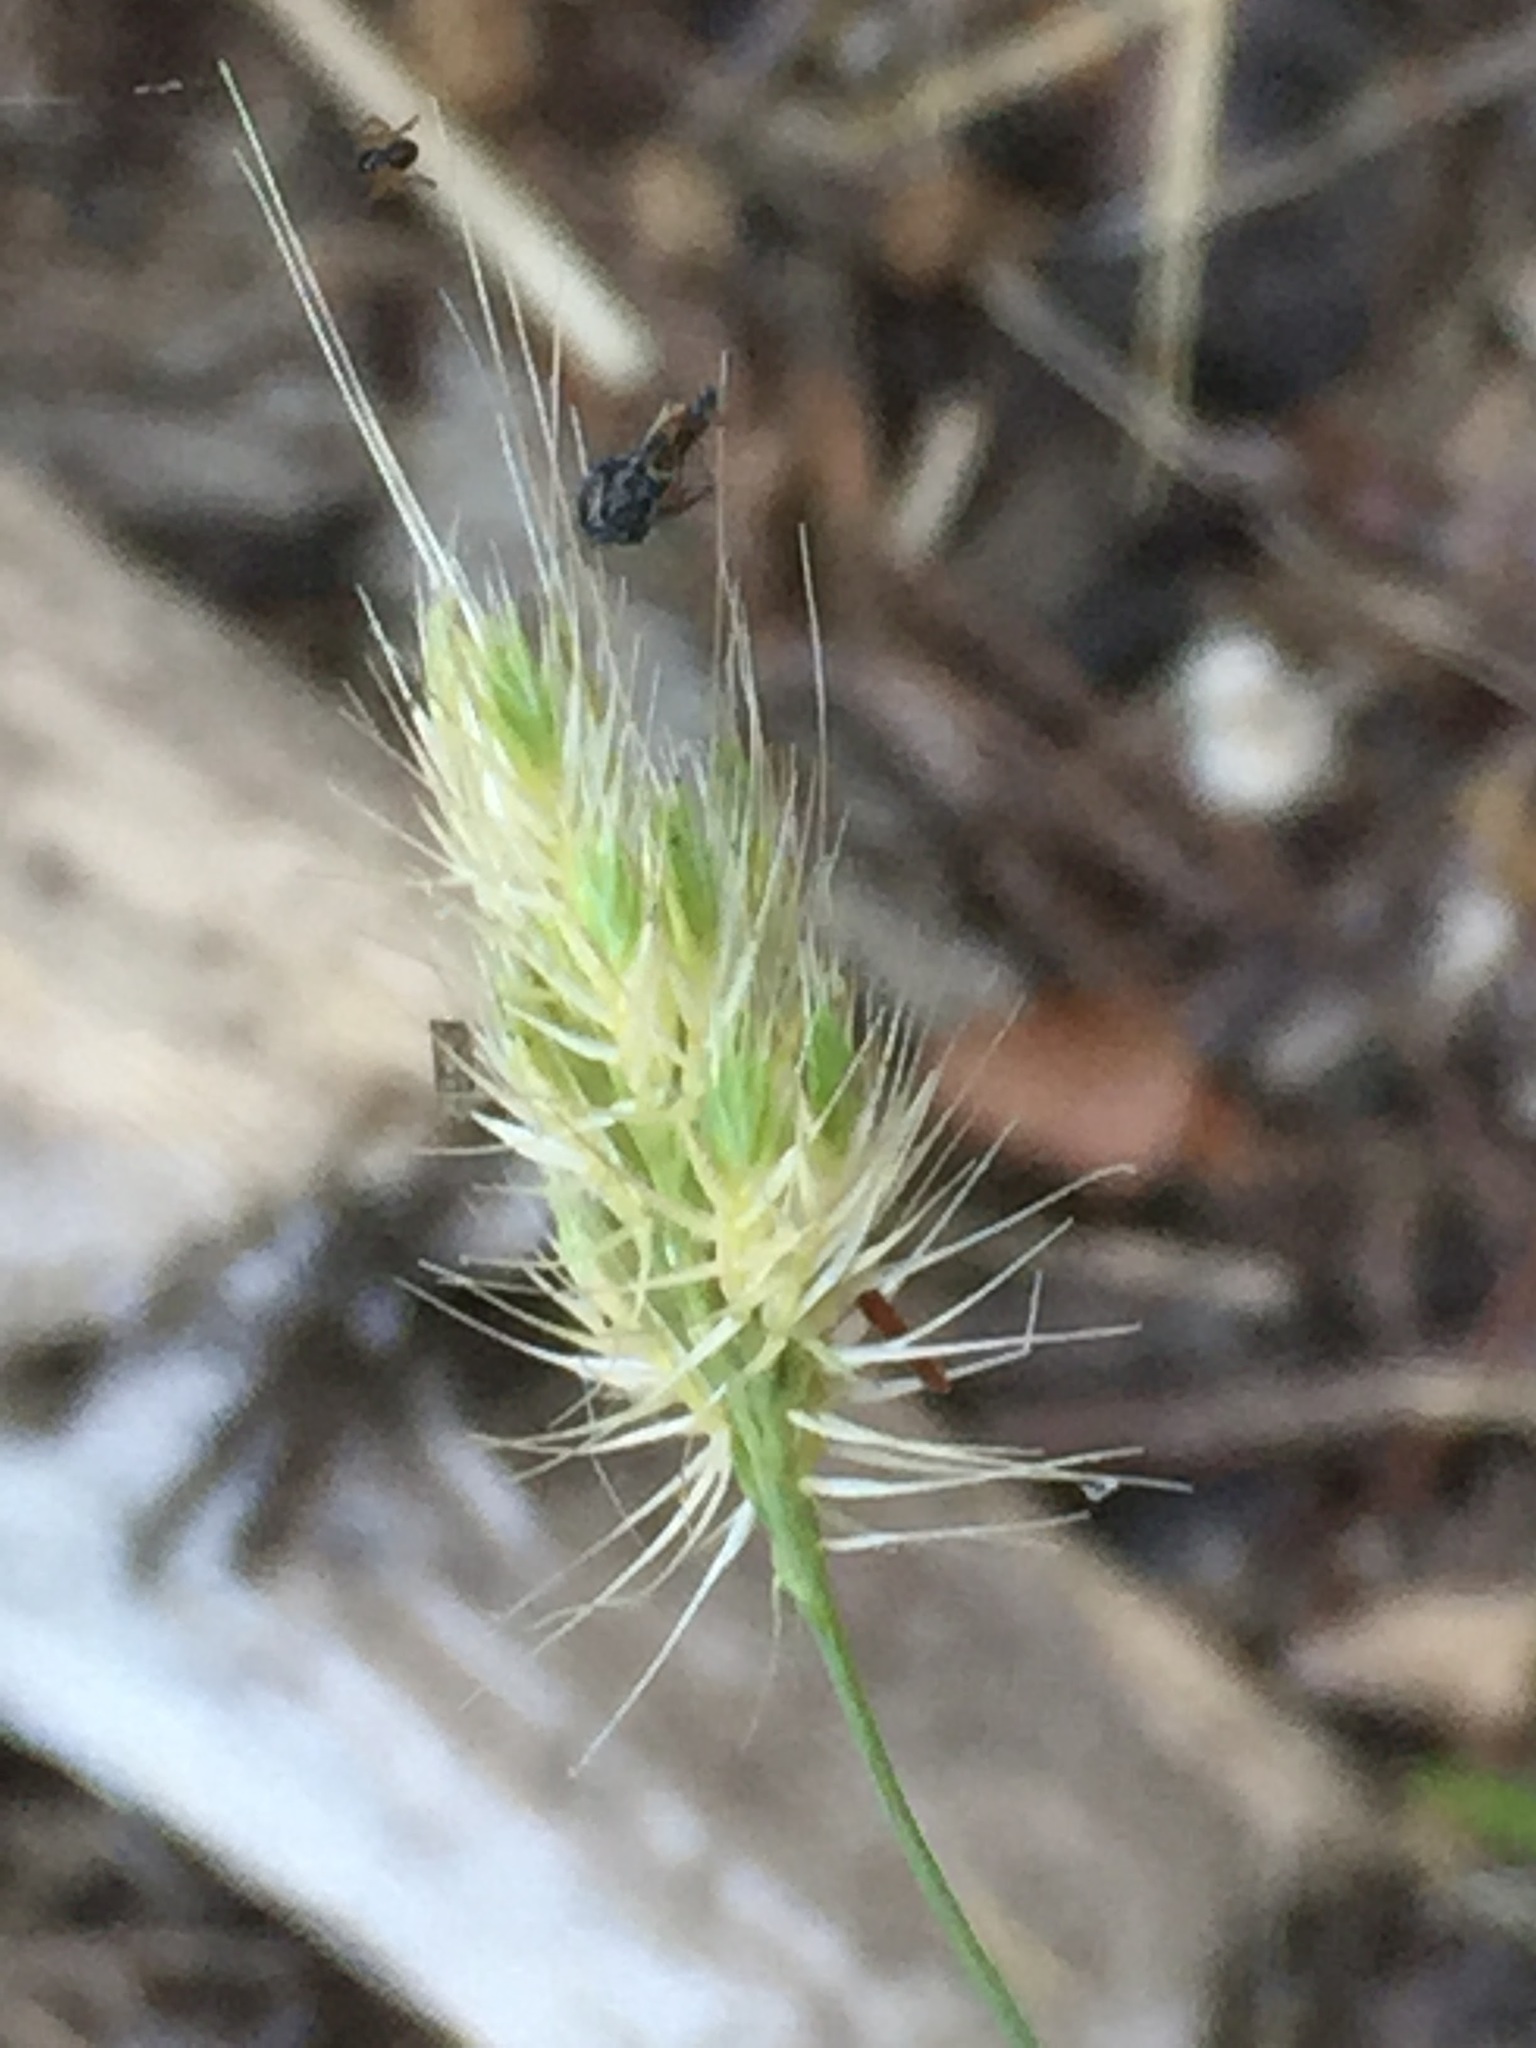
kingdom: Plantae
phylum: Tracheophyta
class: Liliopsida
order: Poales
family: Poaceae
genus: Cynosurus
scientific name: Cynosurus echinatus
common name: Rough dog's-tail
